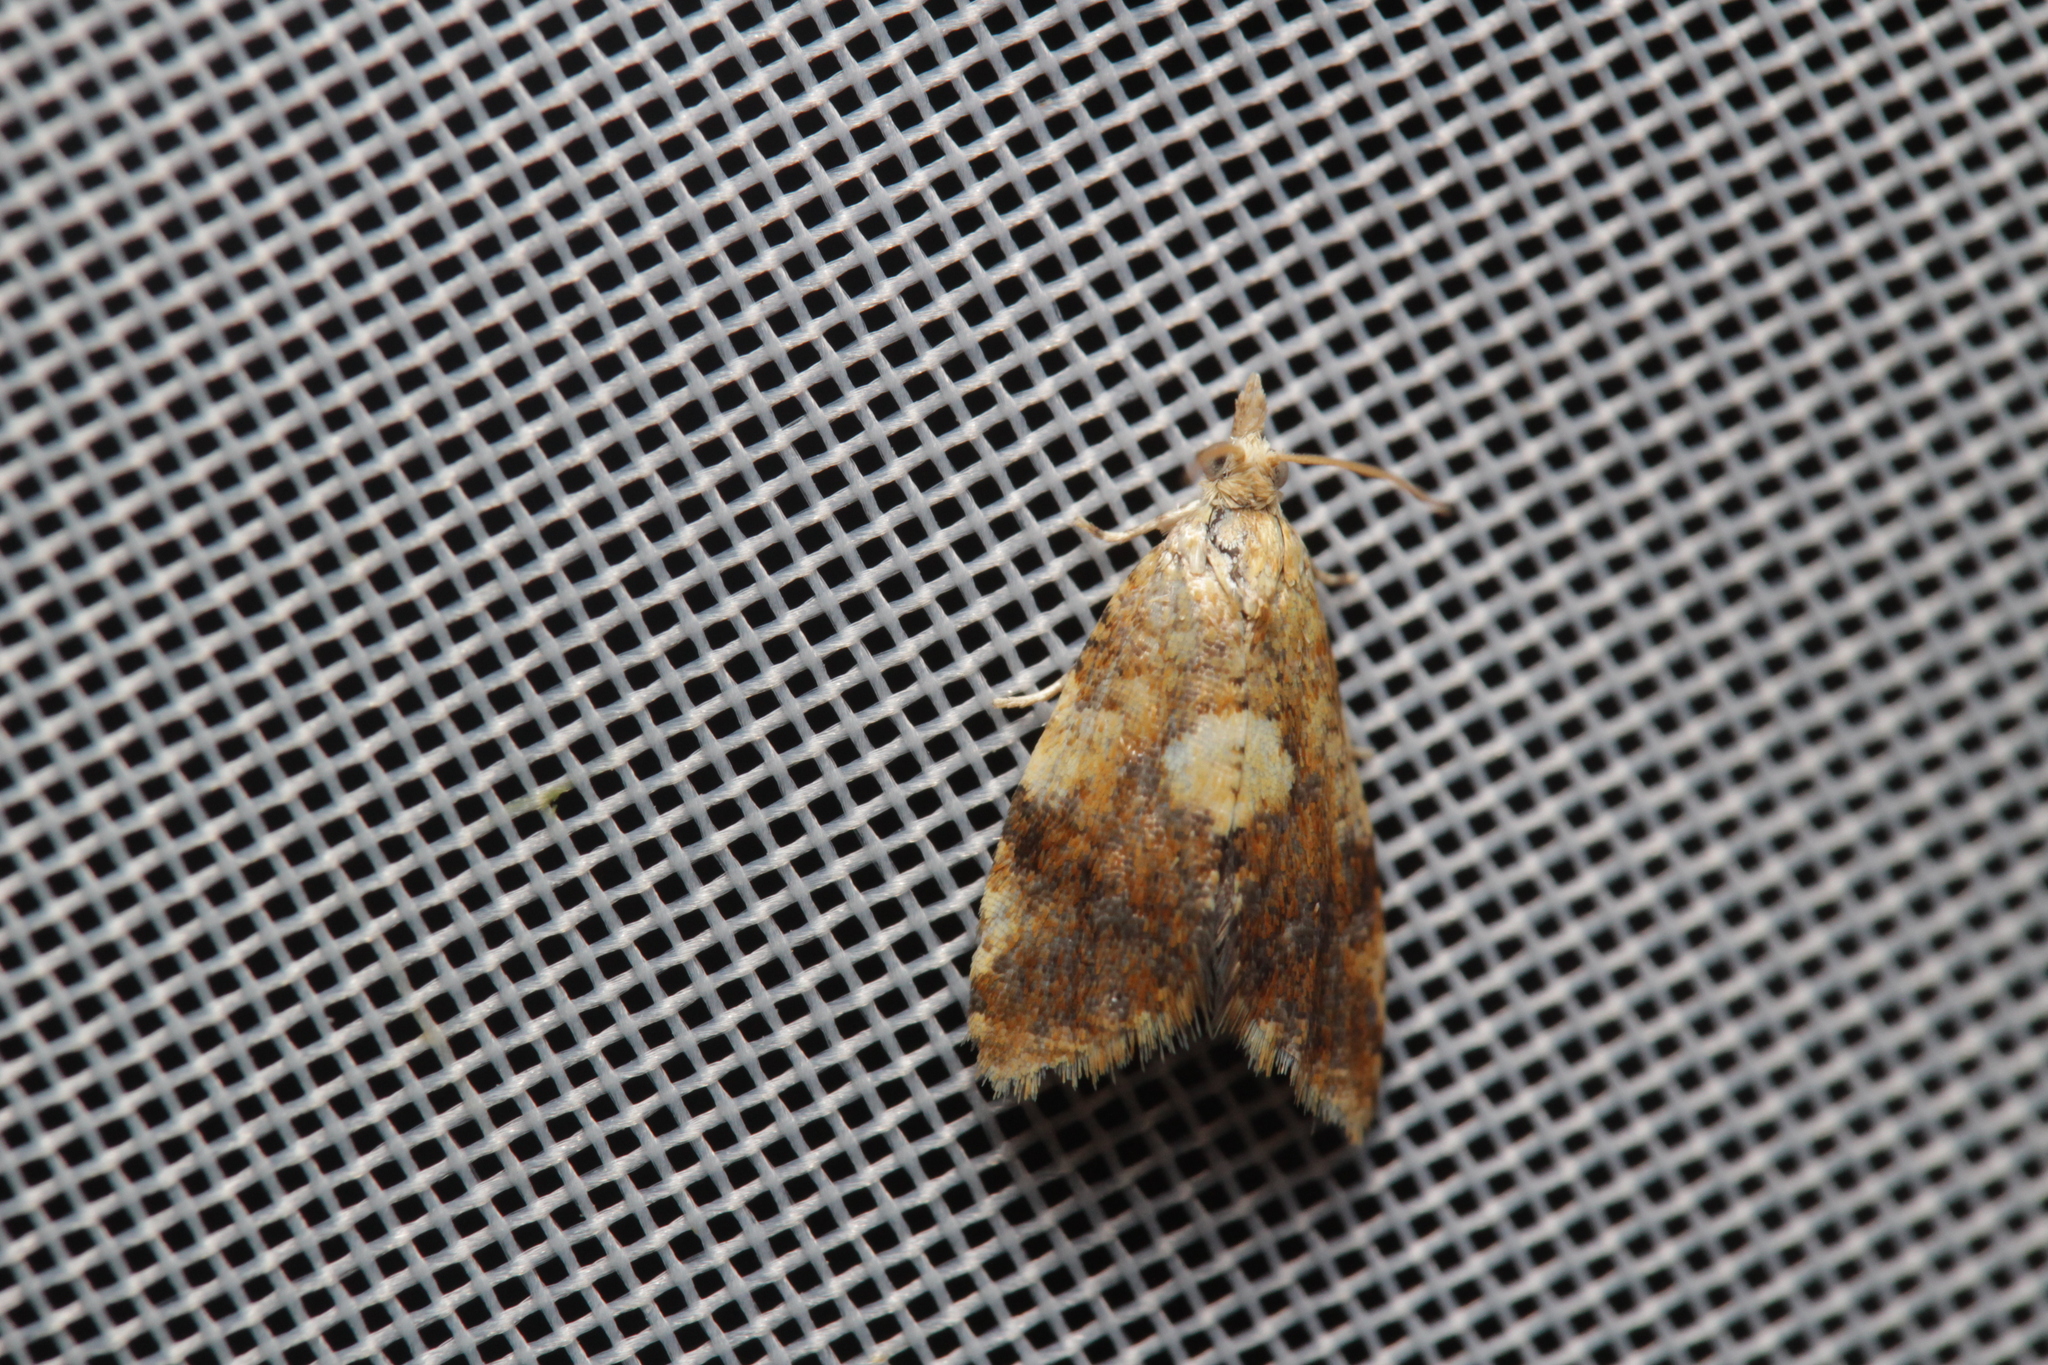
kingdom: Animalia
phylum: Arthropoda
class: Insecta
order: Lepidoptera
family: Tortricidae
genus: Pseudargyrotoza
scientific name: Pseudargyrotoza conwagana
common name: Yellow-spot twist
